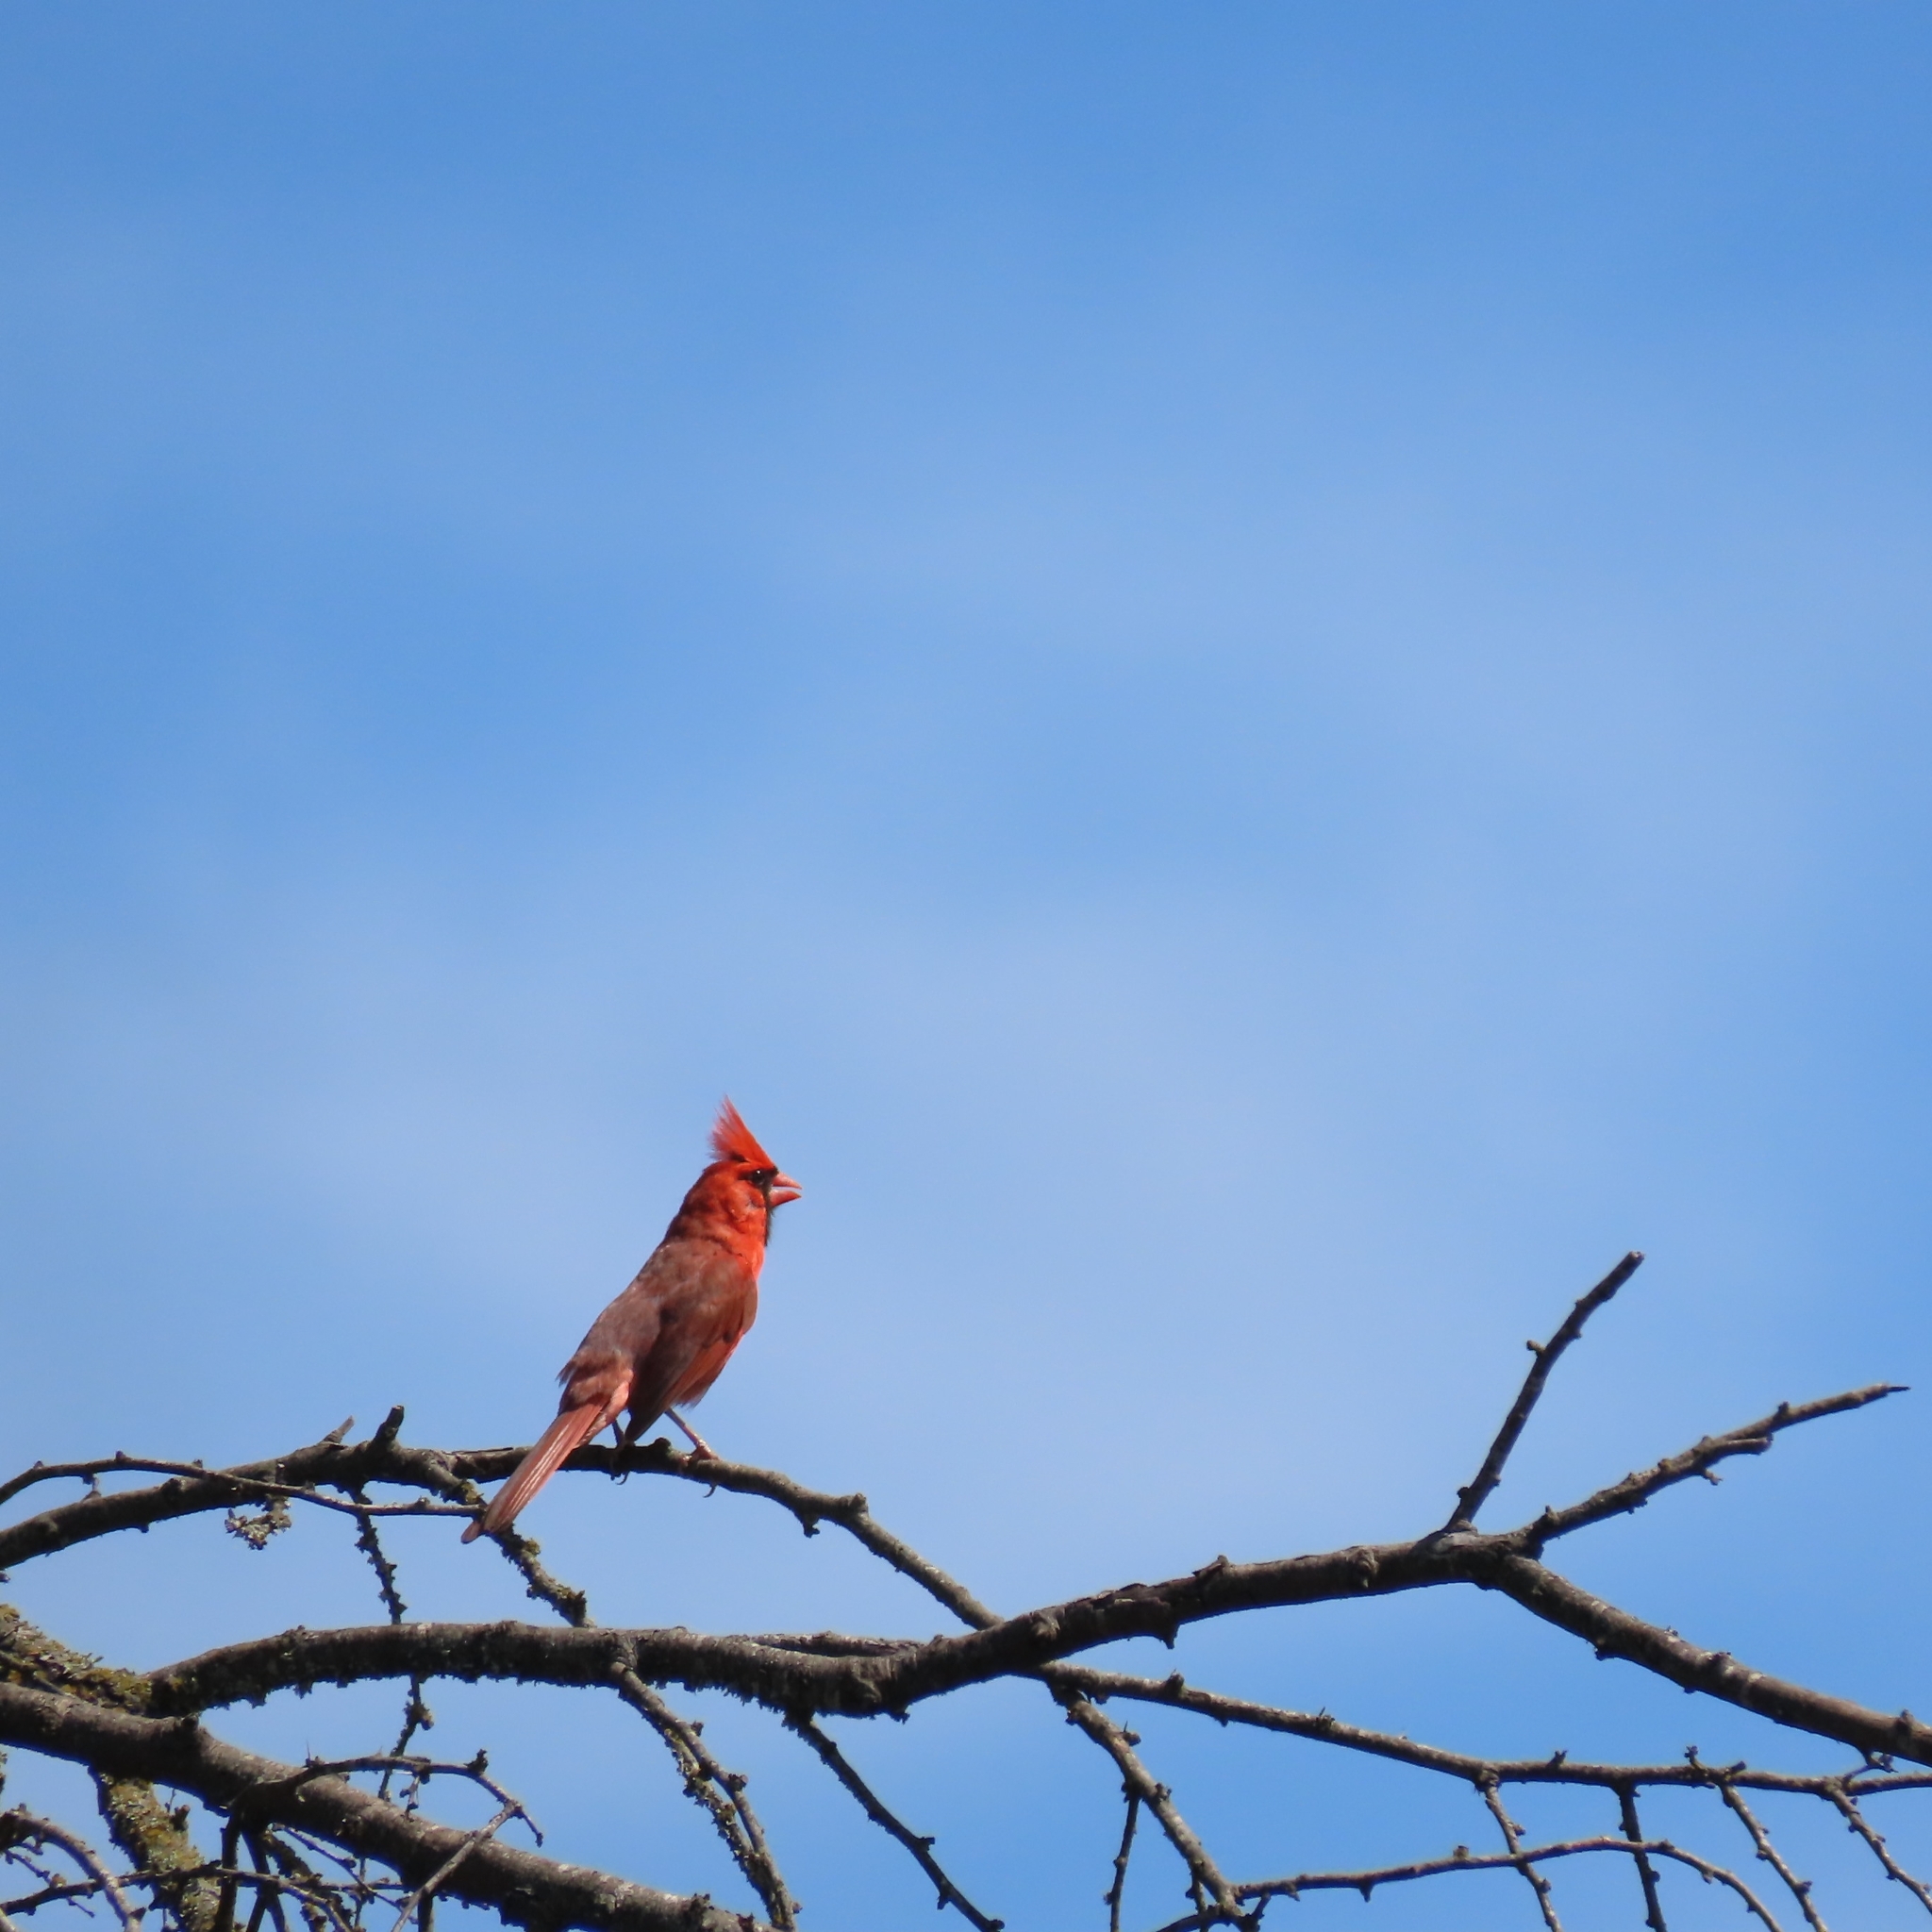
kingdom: Animalia
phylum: Chordata
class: Aves
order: Passeriformes
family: Cardinalidae
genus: Cardinalis
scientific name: Cardinalis cardinalis
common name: Northern cardinal
